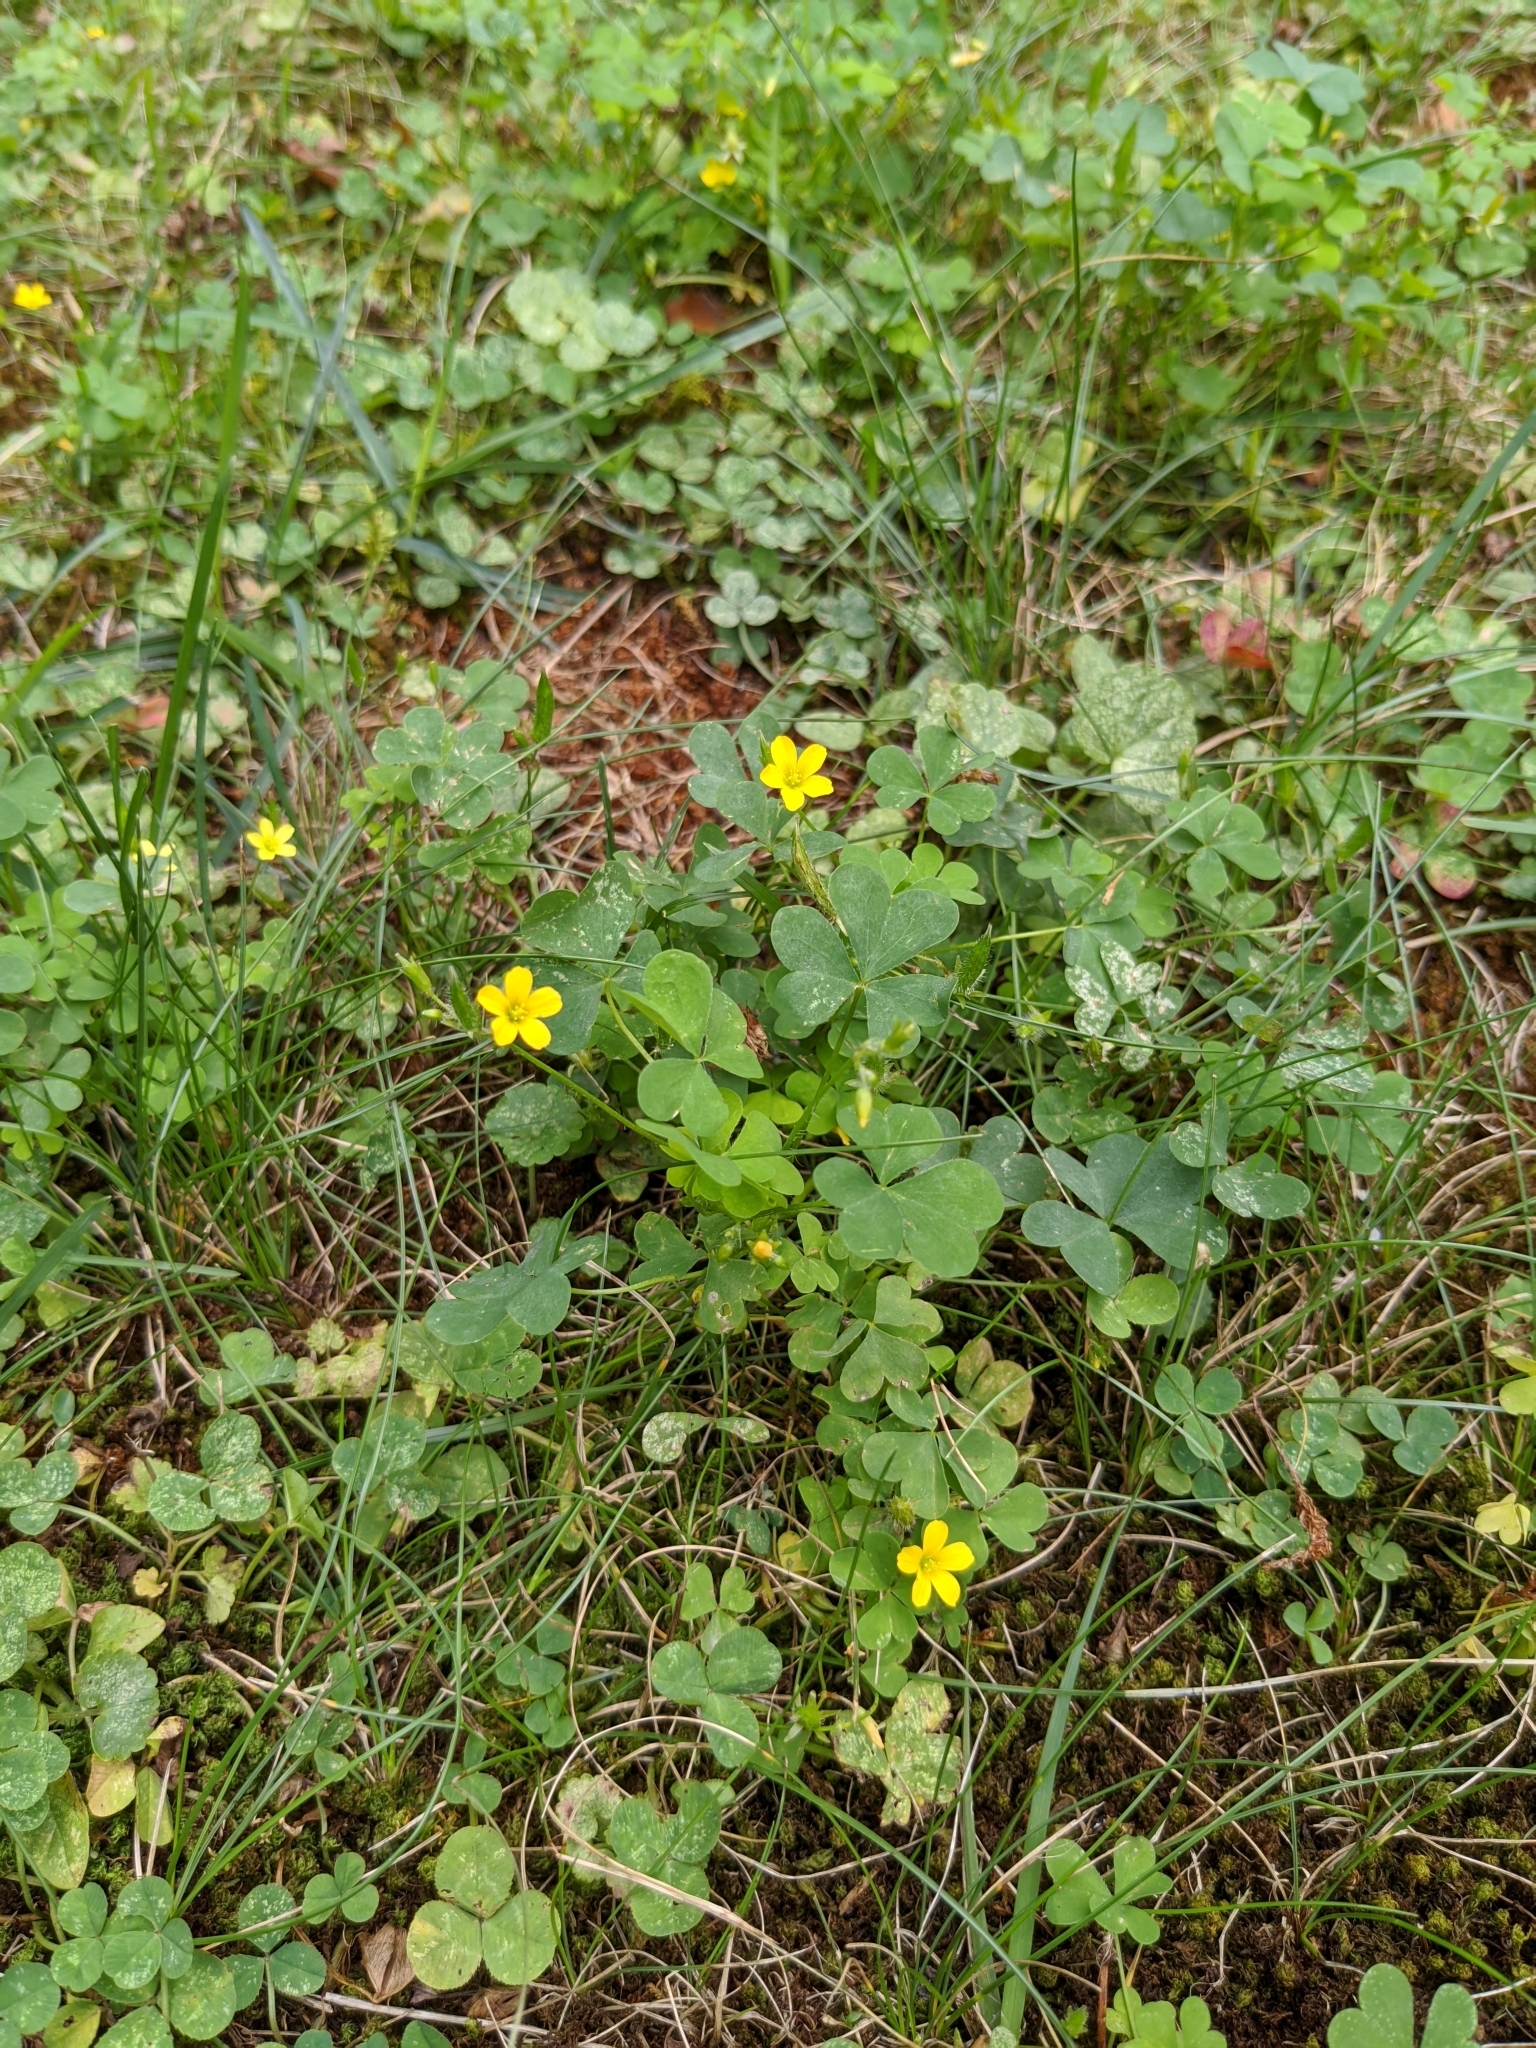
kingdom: Plantae
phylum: Tracheophyta
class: Magnoliopsida
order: Oxalidales
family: Oxalidaceae
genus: Oxalis
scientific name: Oxalis stricta
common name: Upright yellow-sorrel
